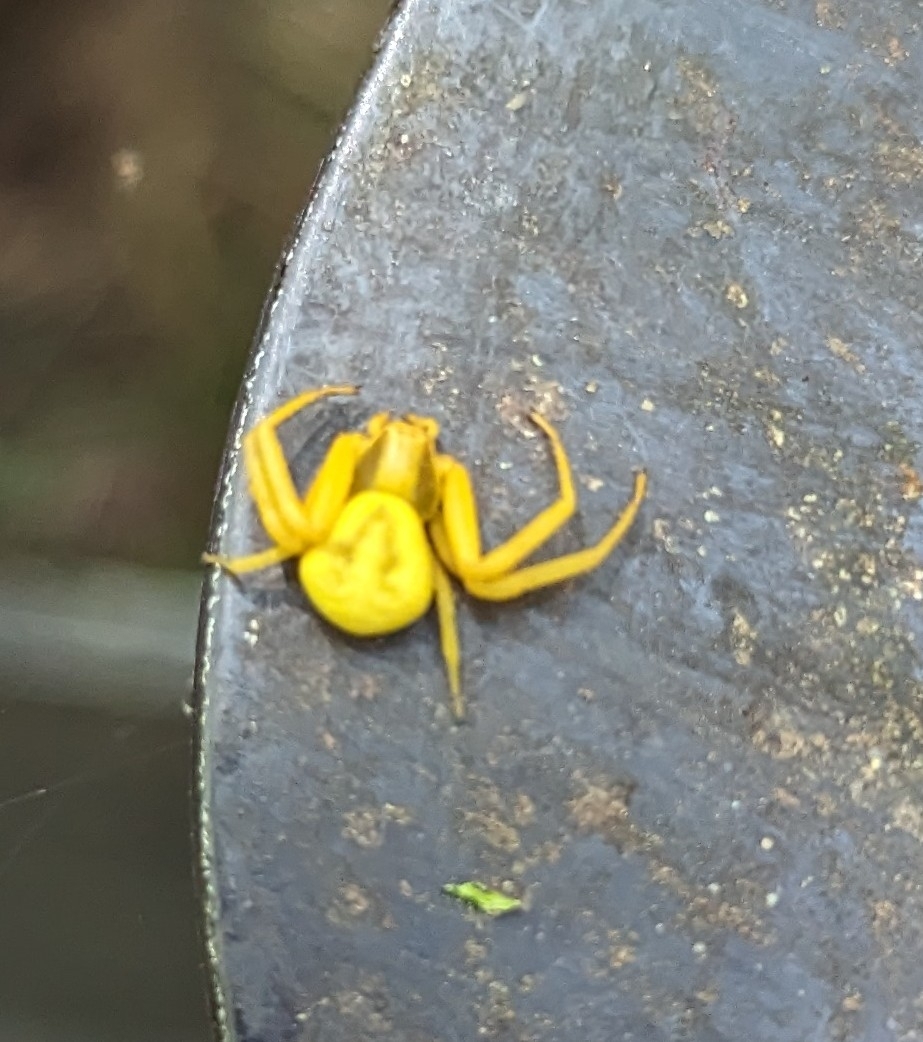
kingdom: Animalia
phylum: Arthropoda
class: Arachnida
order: Araneae
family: Thomisidae
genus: Misumenoides
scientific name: Misumenoides formosipes
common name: White-banded crab spider
